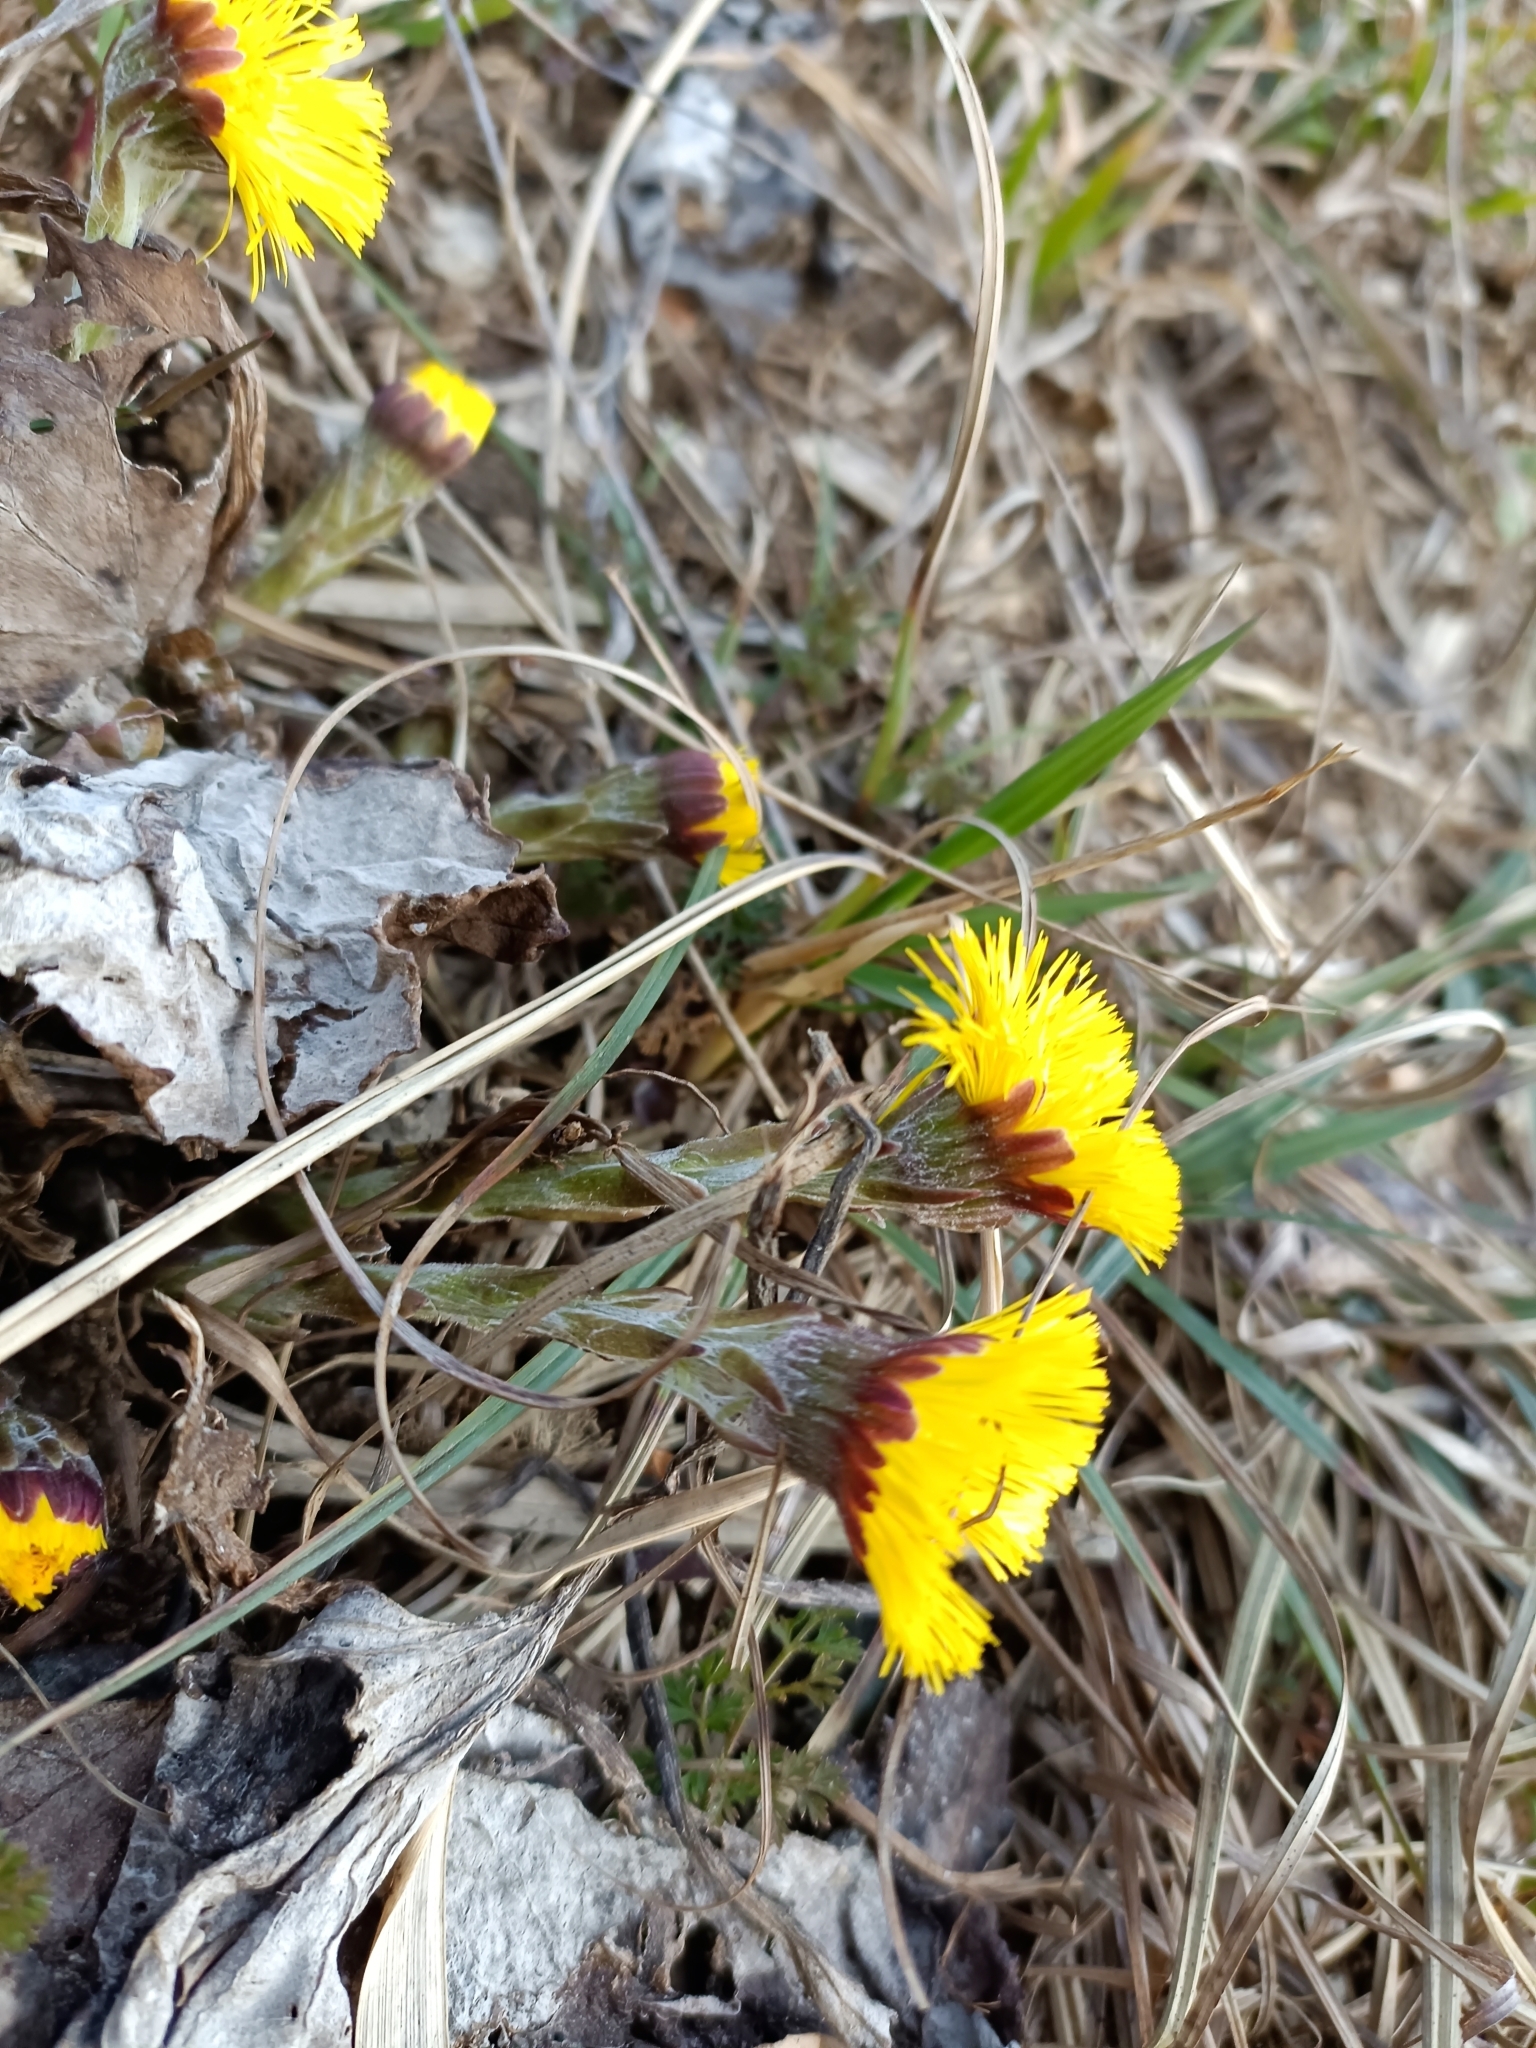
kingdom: Plantae
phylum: Tracheophyta
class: Magnoliopsida
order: Asterales
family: Asteraceae
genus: Tussilago
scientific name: Tussilago farfara
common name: Coltsfoot
